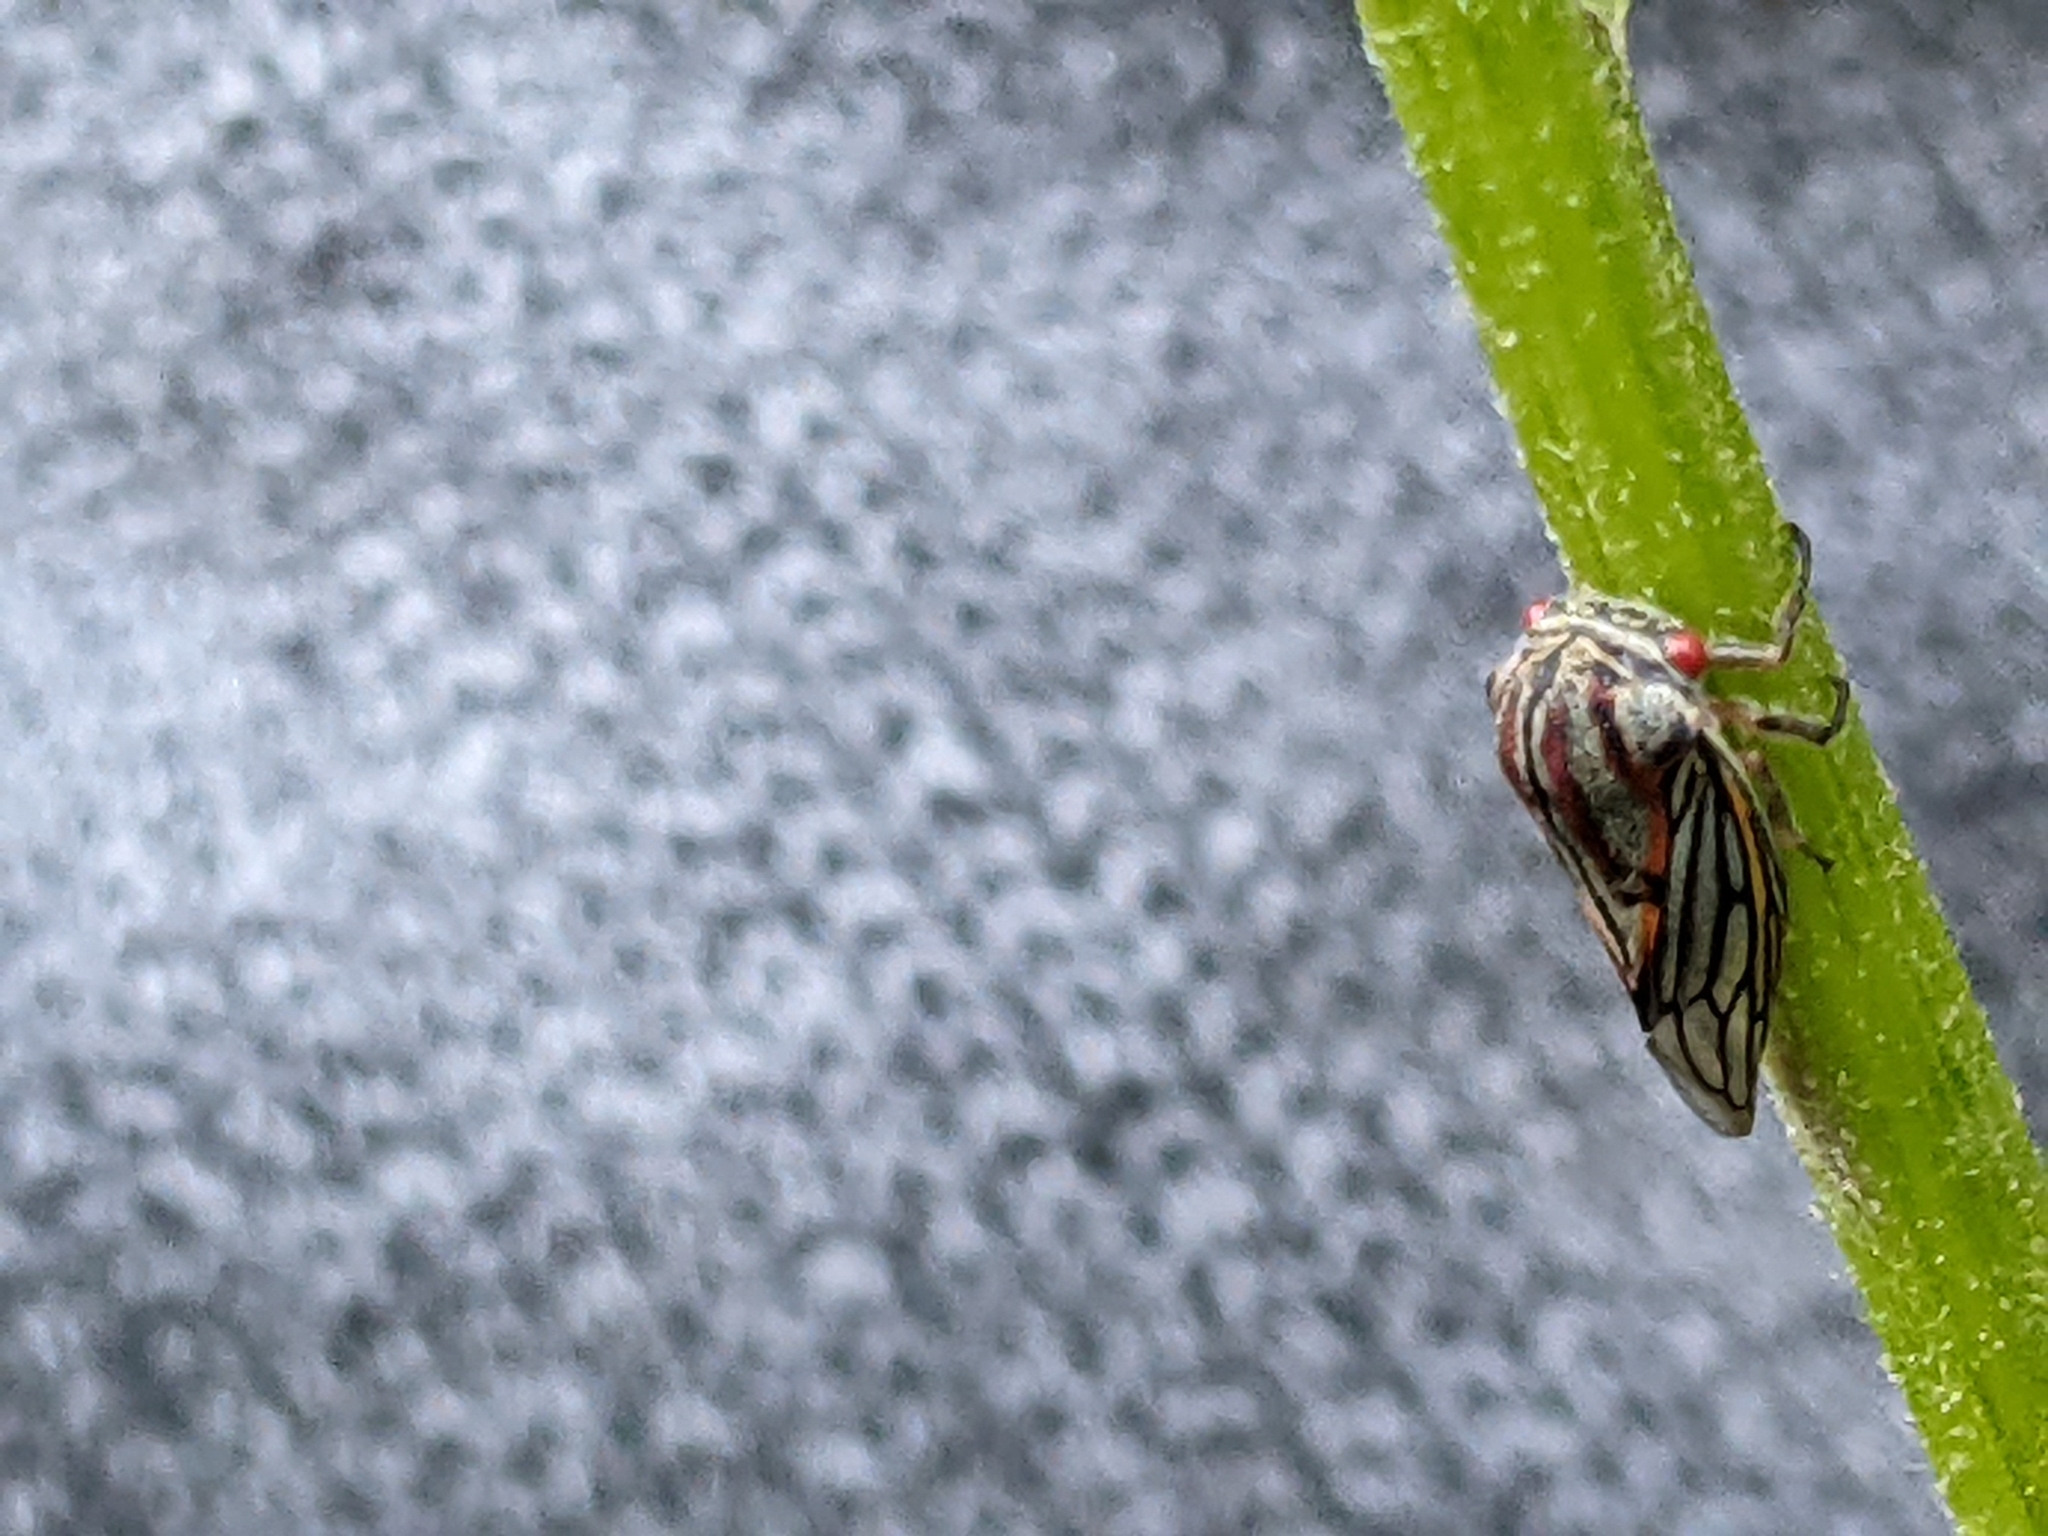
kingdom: Animalia
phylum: Arthropoda
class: Insecta
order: Hemiptera
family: Membracidae
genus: Platycotis
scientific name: Platycotis vittatus
